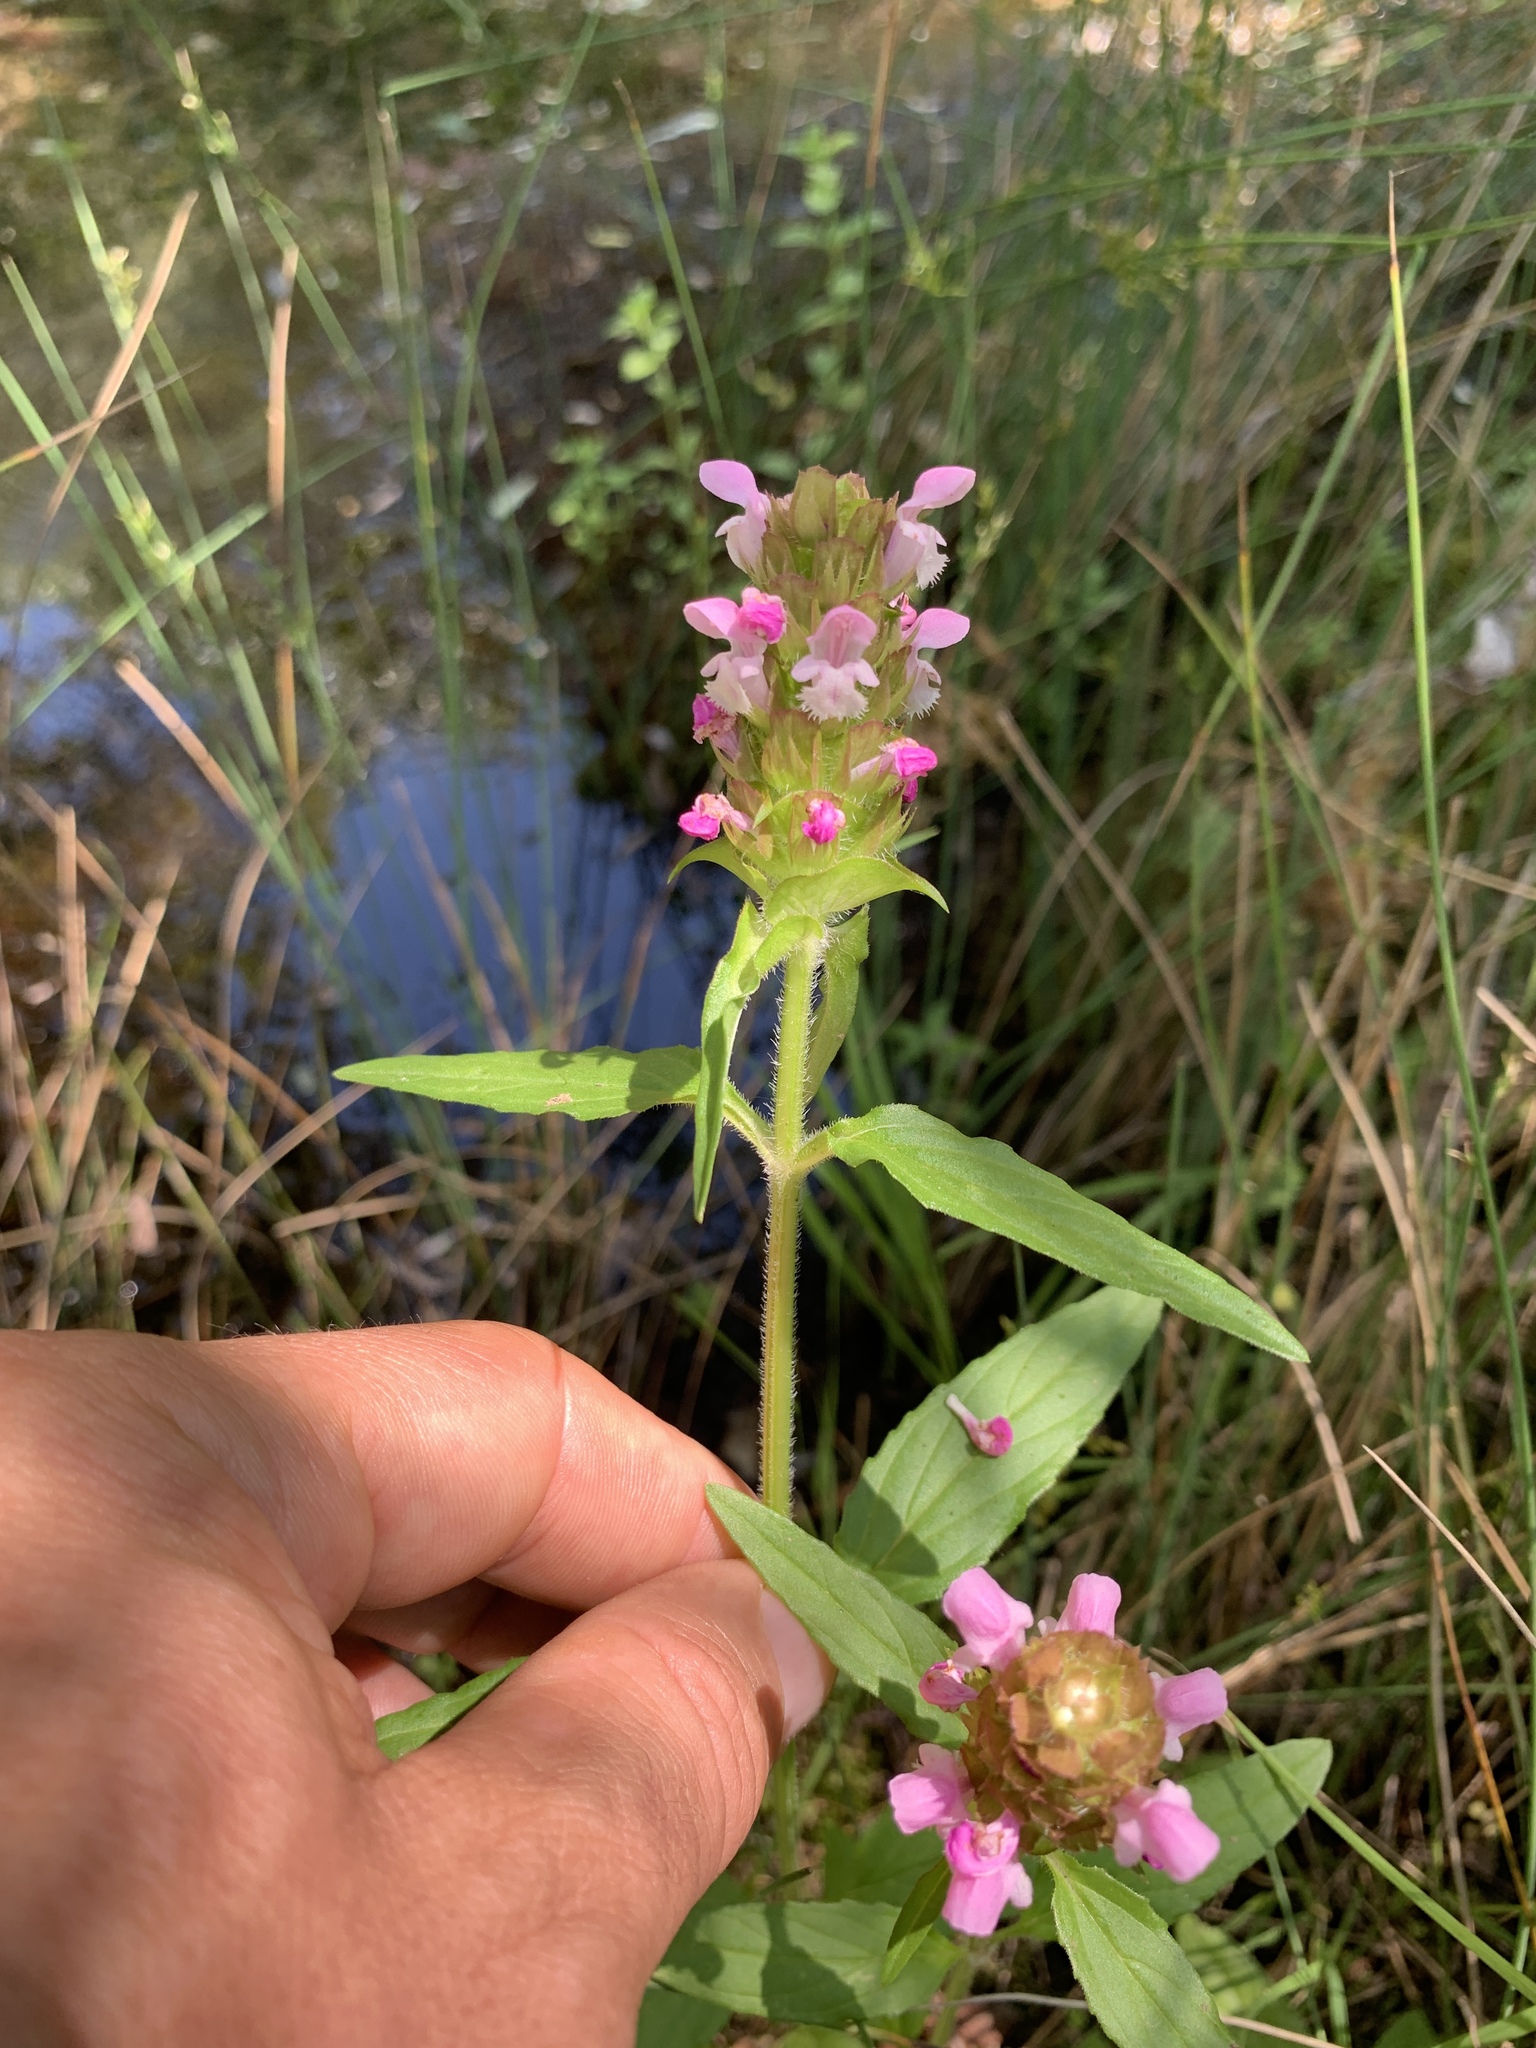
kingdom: Plantae
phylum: Tracheophyta
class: Magnoliopsida
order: Lamiales
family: Lamiaceae
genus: Prunella
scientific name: Prunella vulgaris
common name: Heal-all
